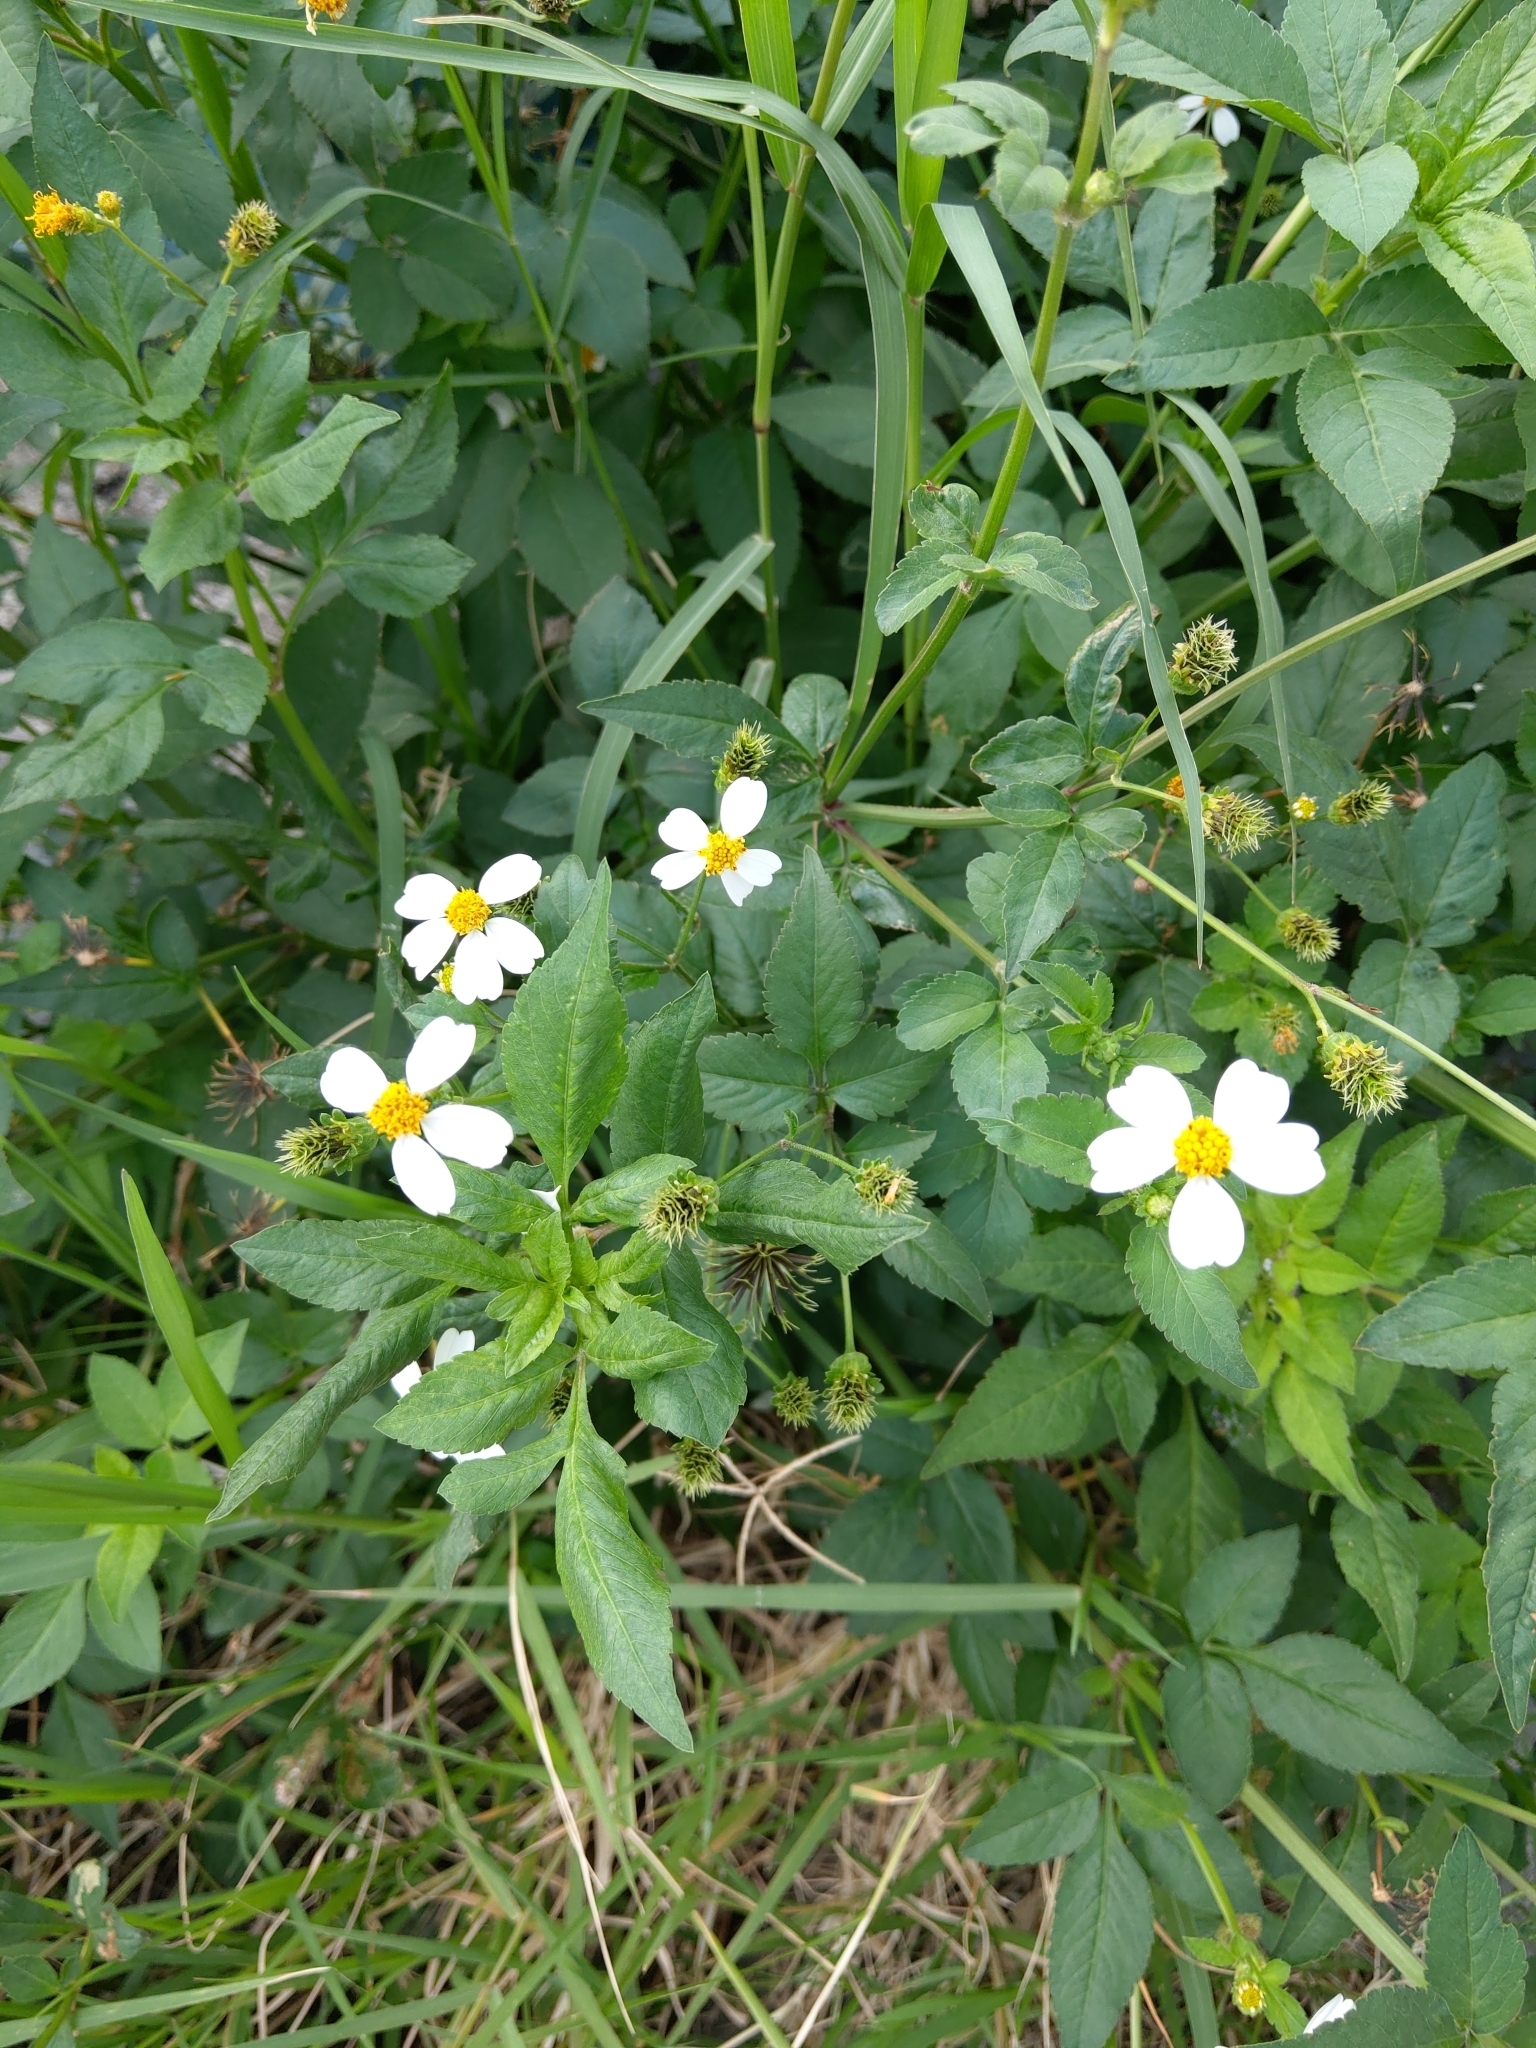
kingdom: Plantae
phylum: Tracheophyta
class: Magnoliopsida
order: Asterales
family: Asteraceae
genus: Bidens
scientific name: Bidens alba
